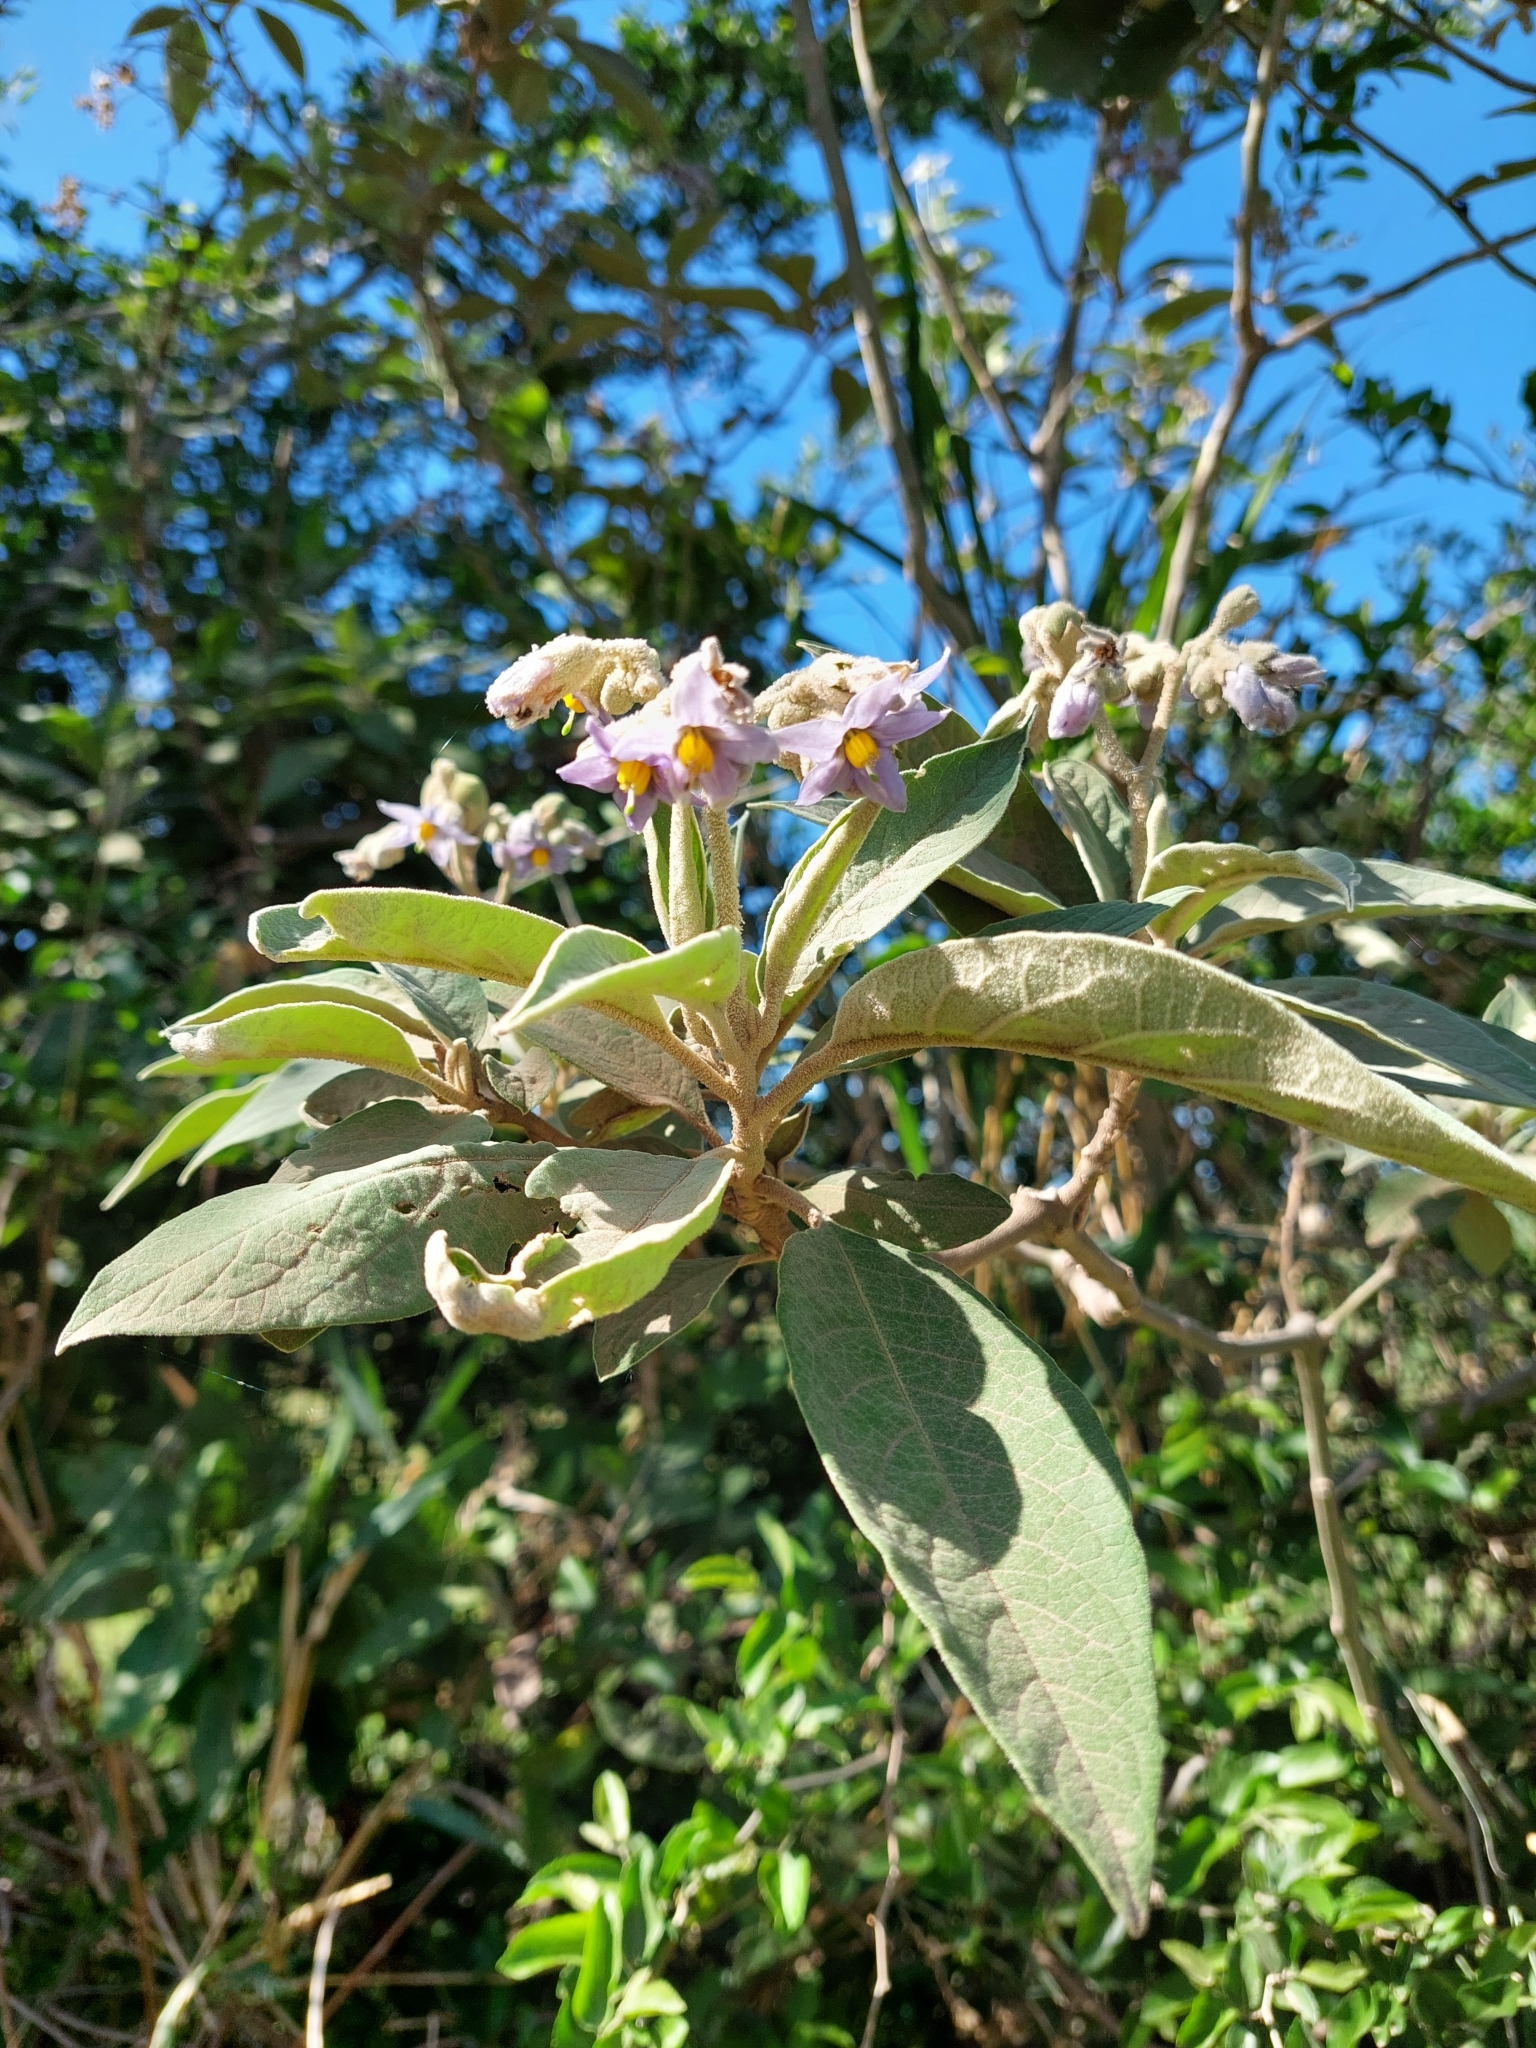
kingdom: Plantae
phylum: Tracheophyta
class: Magnoliopsida
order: Solanales
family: Solanaceae
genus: Solanum
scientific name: Solanum granulosoleprosum
